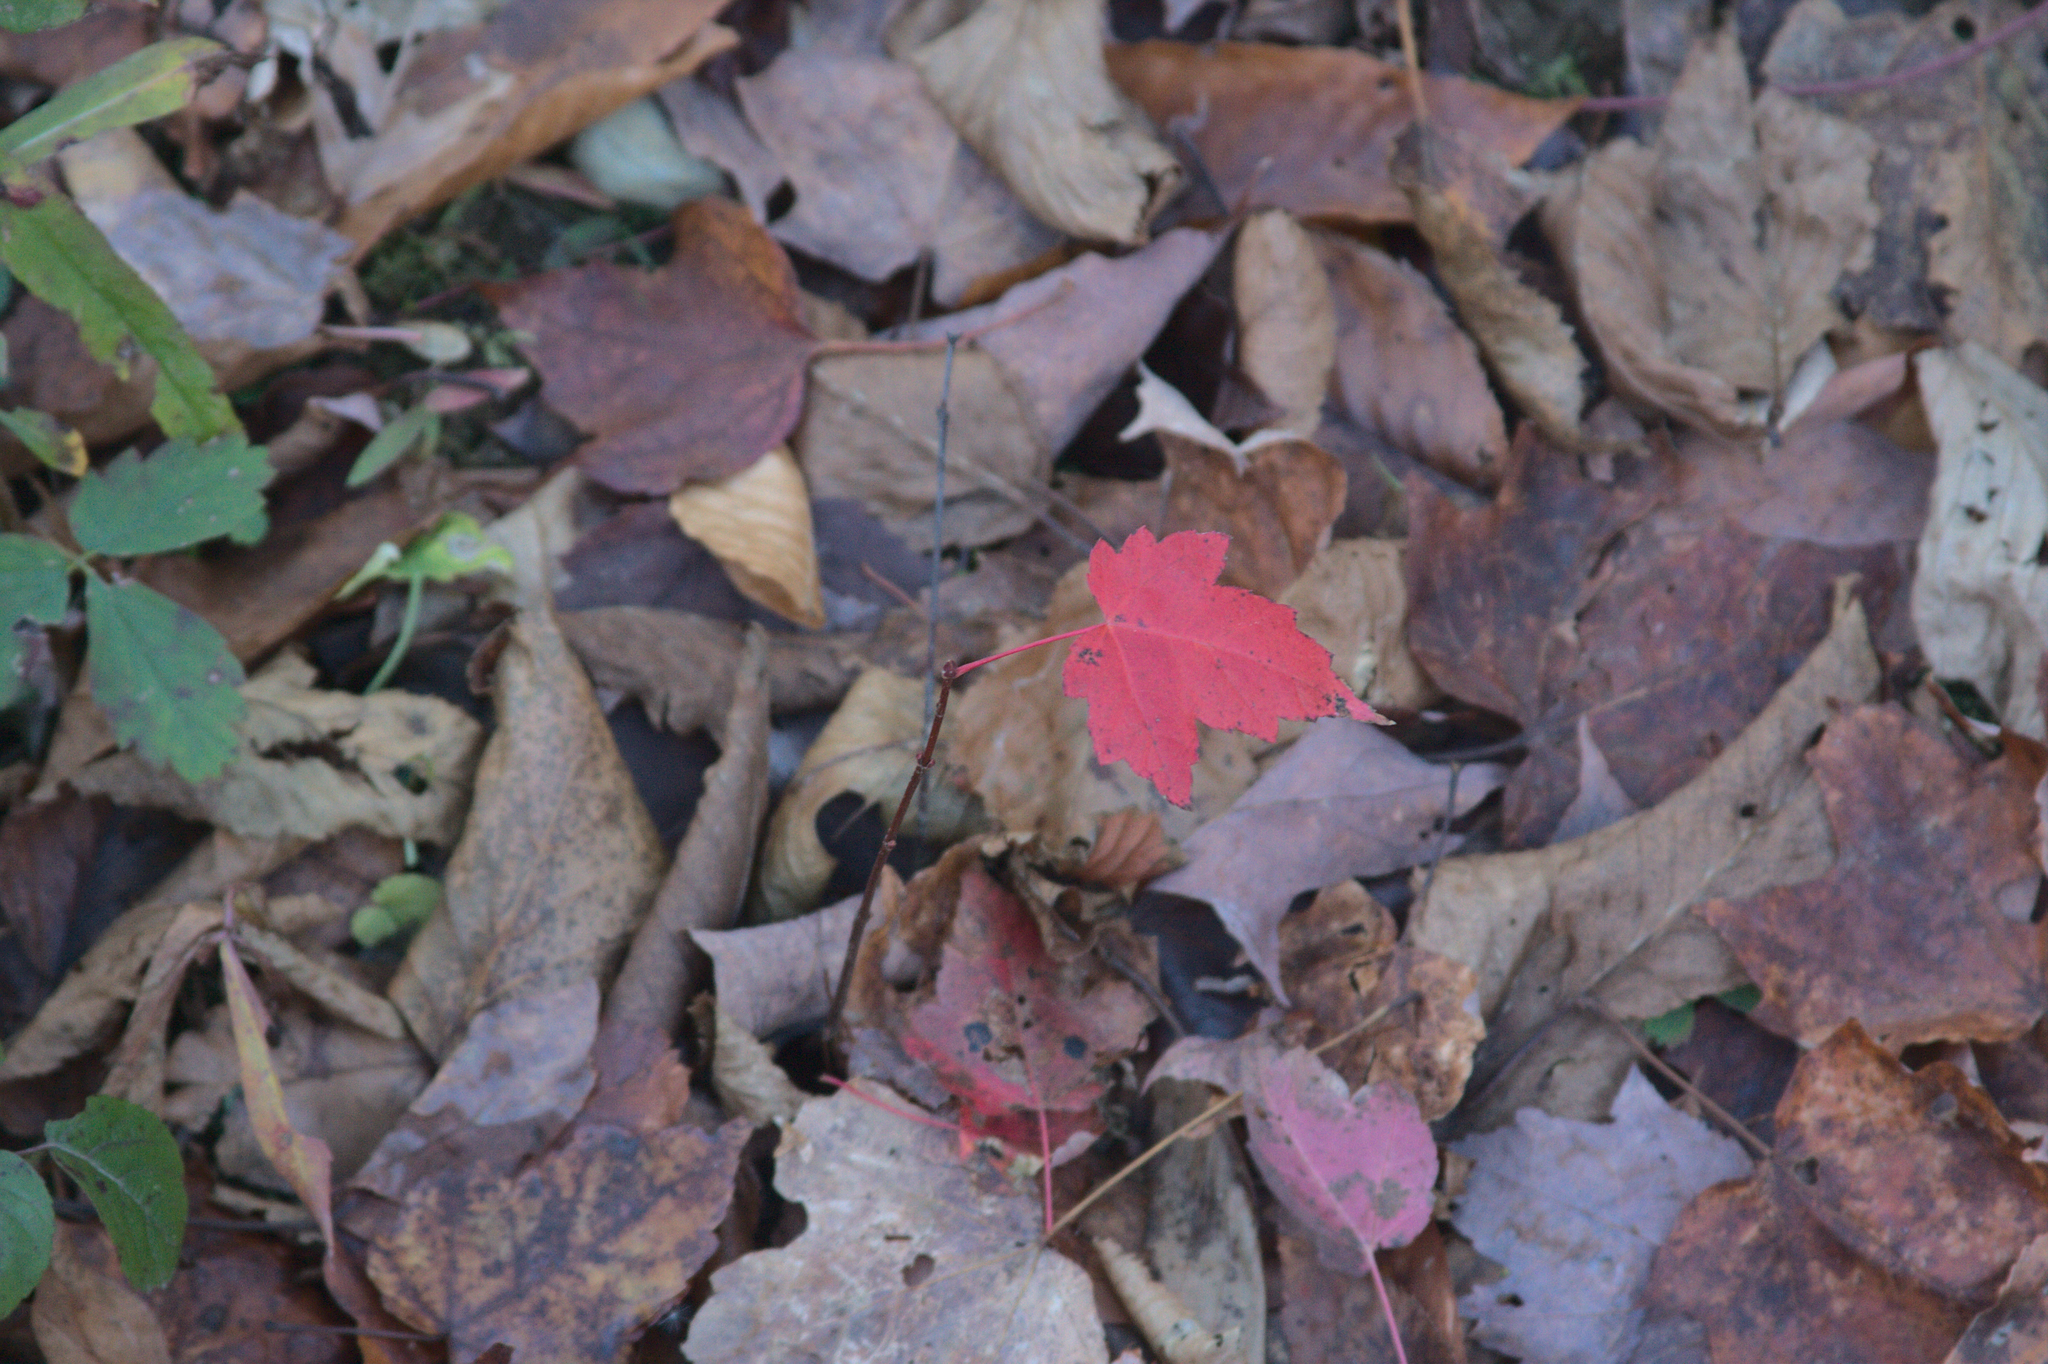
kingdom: Plantae
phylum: Tracheophyta
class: Magnoliopsida
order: Sapindales
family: Sapindaceae
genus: Acer
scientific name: Acer rubrum
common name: Red maple
